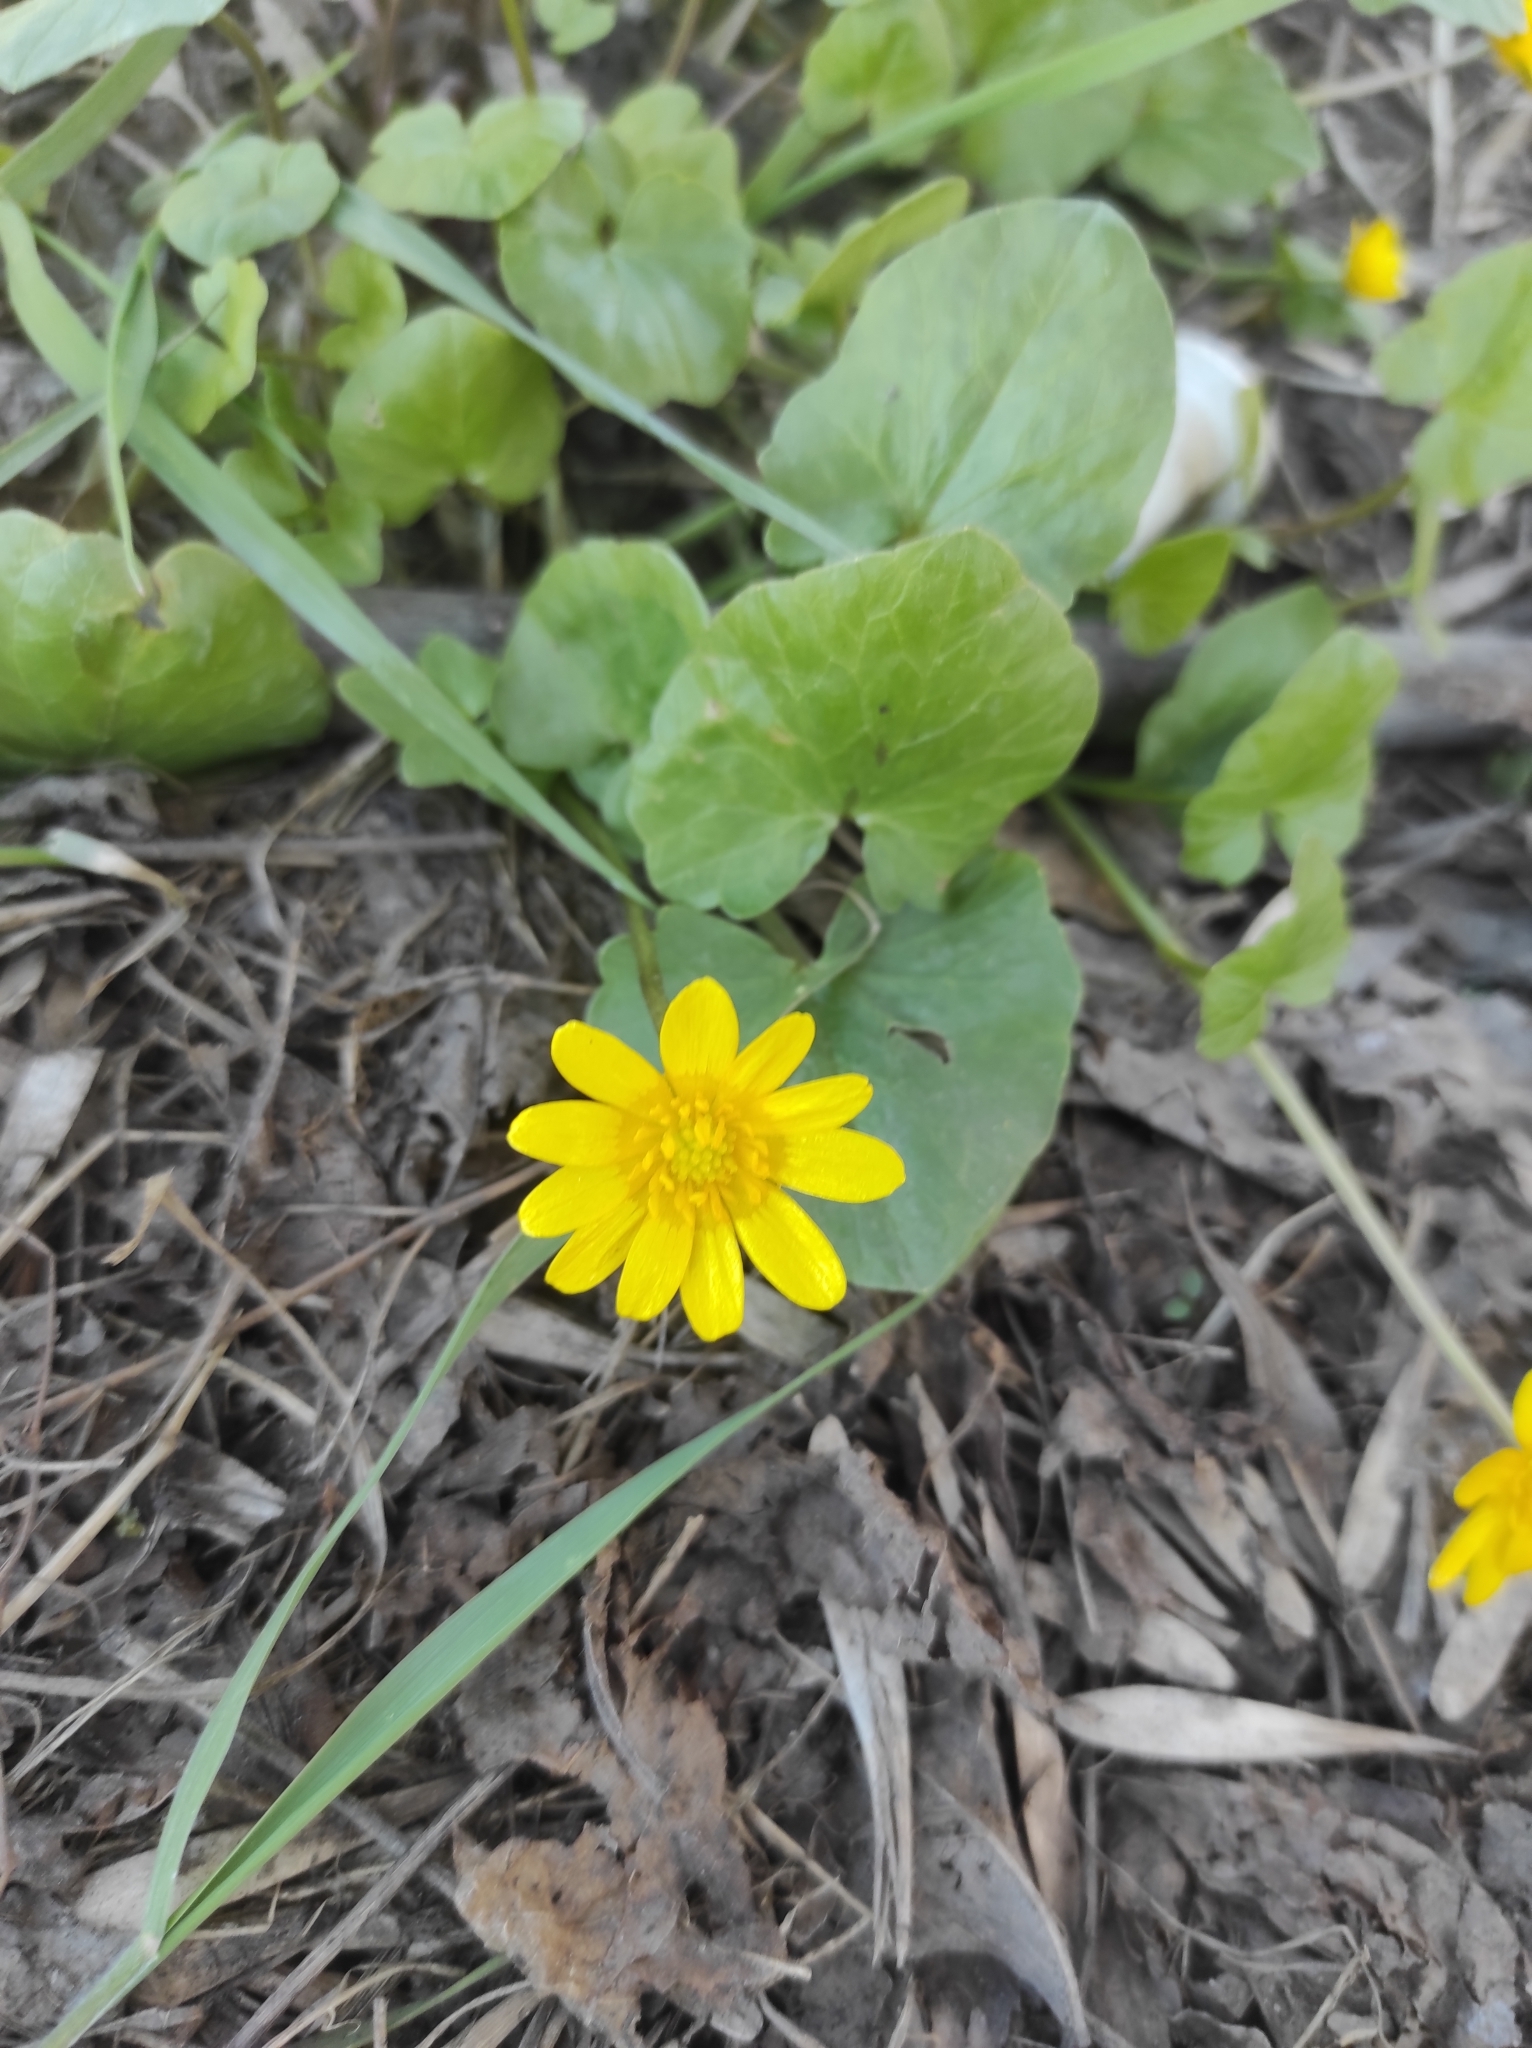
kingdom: Plantae
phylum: Tracheophyta
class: Magnoliopsida
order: Ranunculales
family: Ranunculaceae
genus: Ficaria
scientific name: Ficaria verna
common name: Lesser celandine
